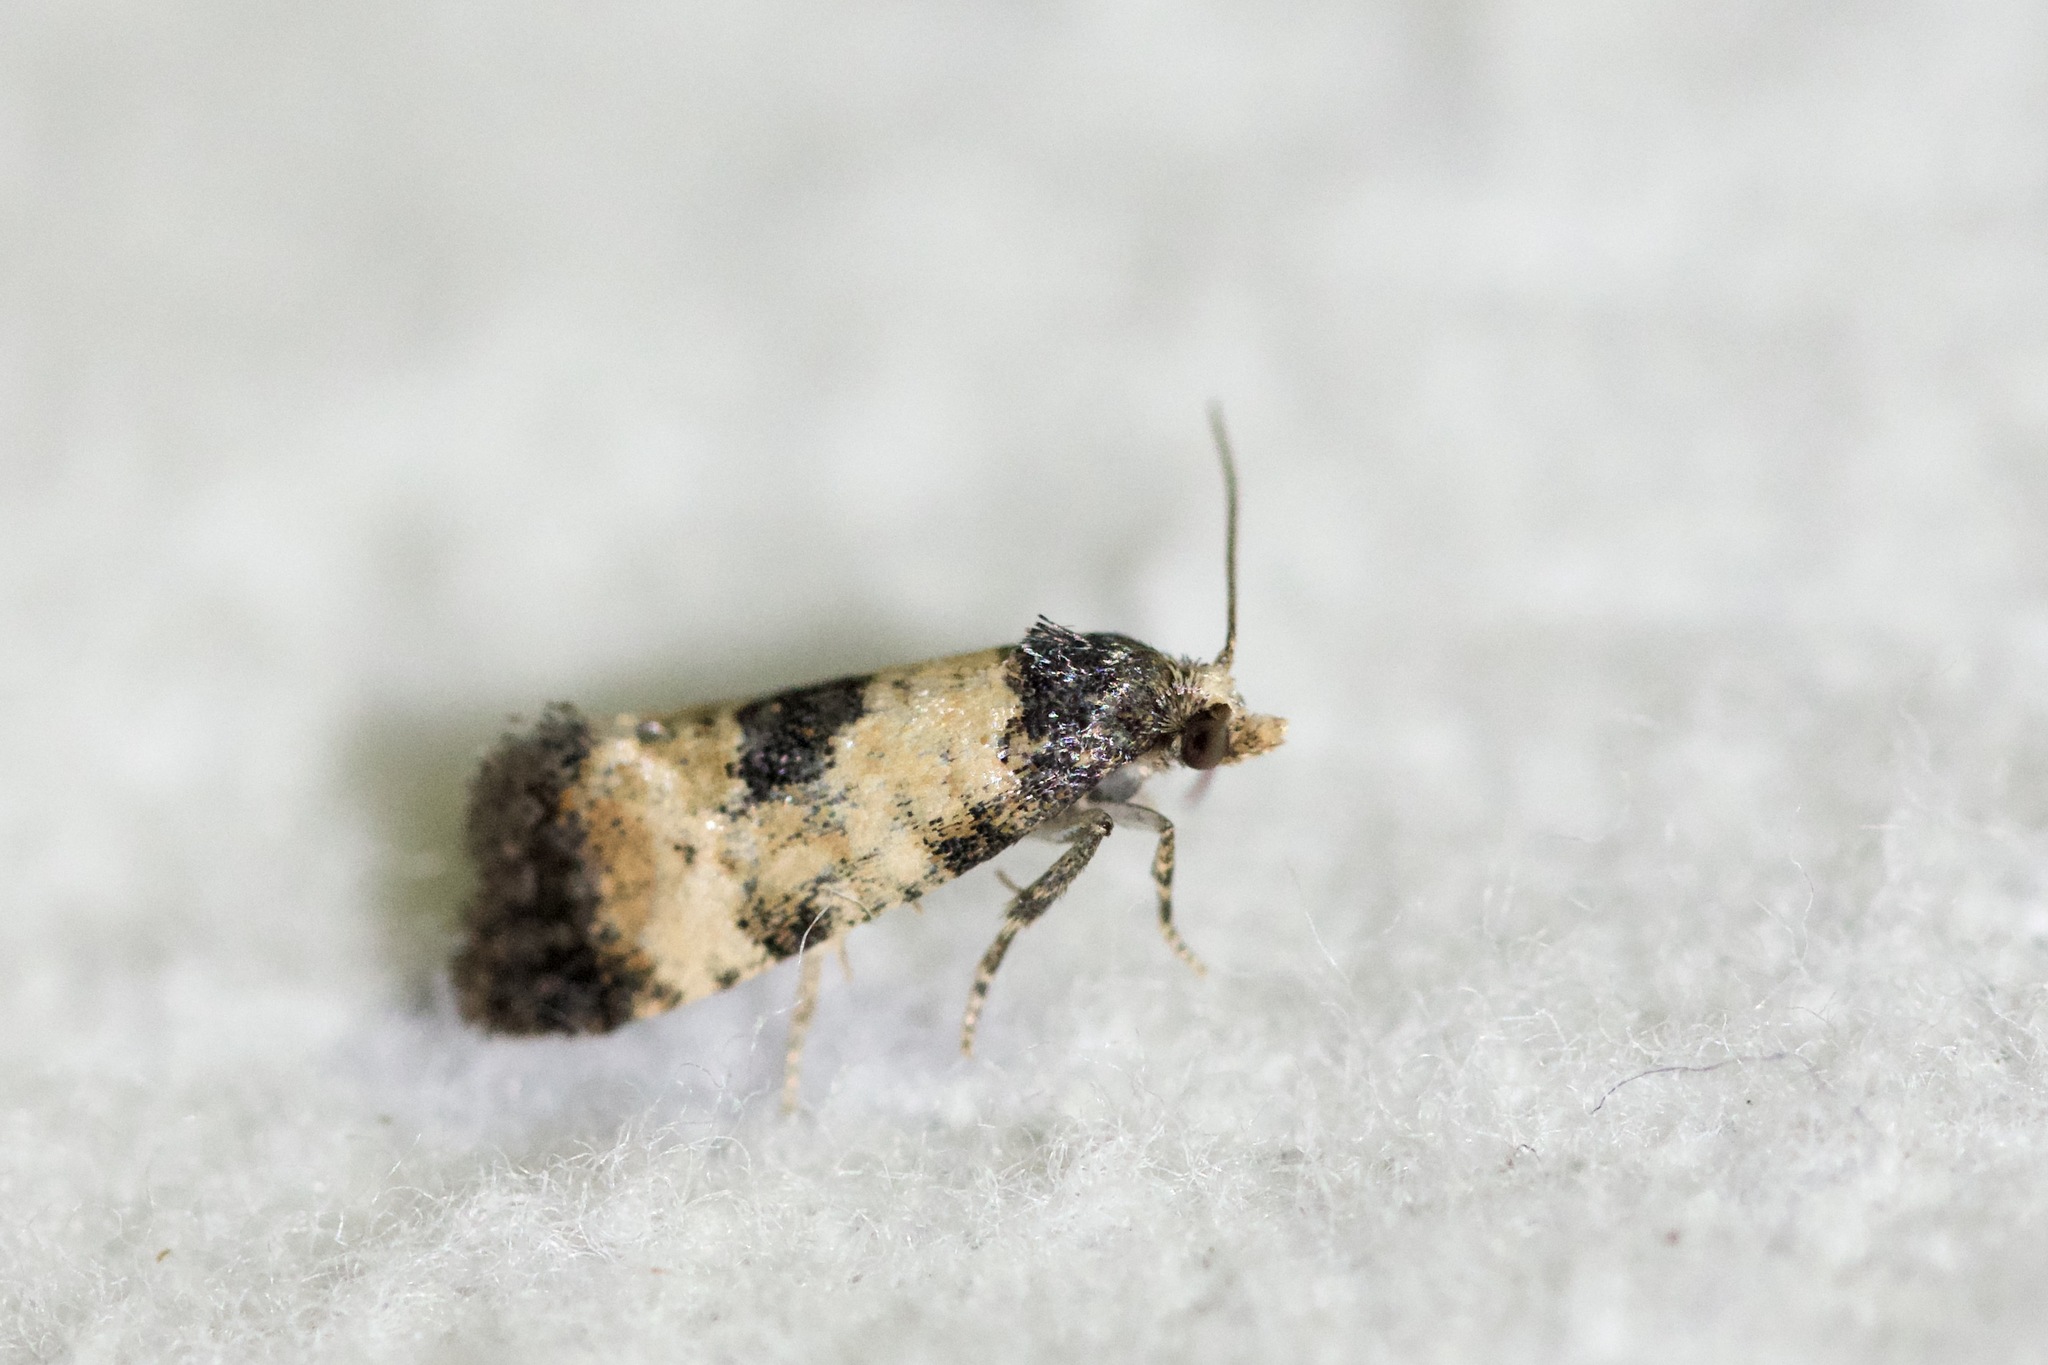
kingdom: Animalia
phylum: Arthropoda
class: Insecta
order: Lepidoptera
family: Tortricidae
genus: Cochylis
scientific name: Cochylis dubitana
